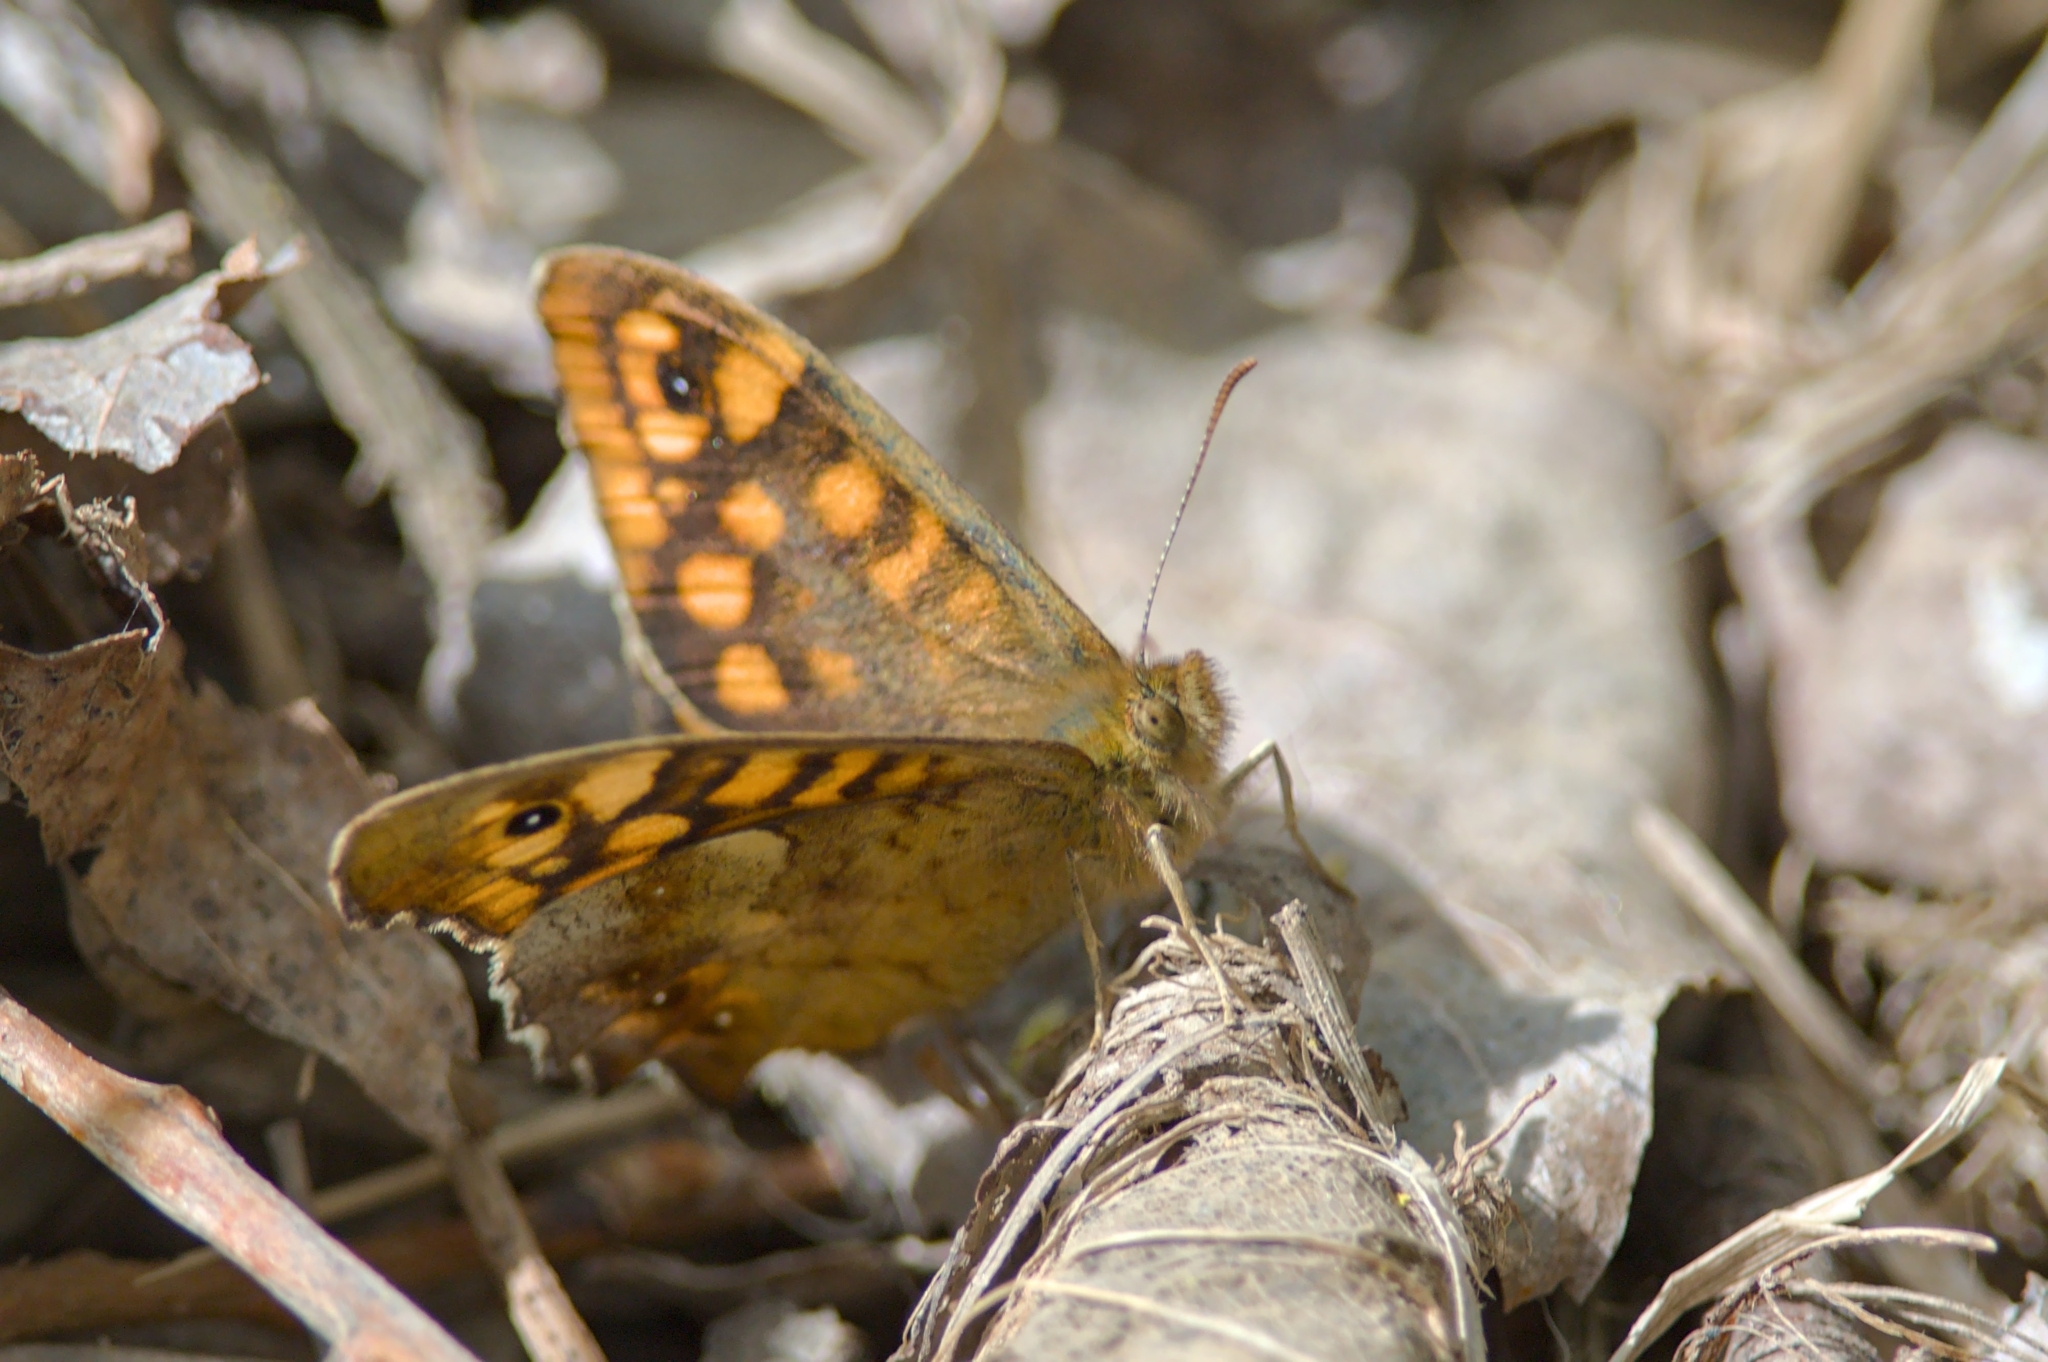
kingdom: Animalia
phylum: Arthropoda
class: Insecta
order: Lepidoptera
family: Nymphalidae
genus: Pararge
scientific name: Pararge aegeria
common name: Speckled wood
